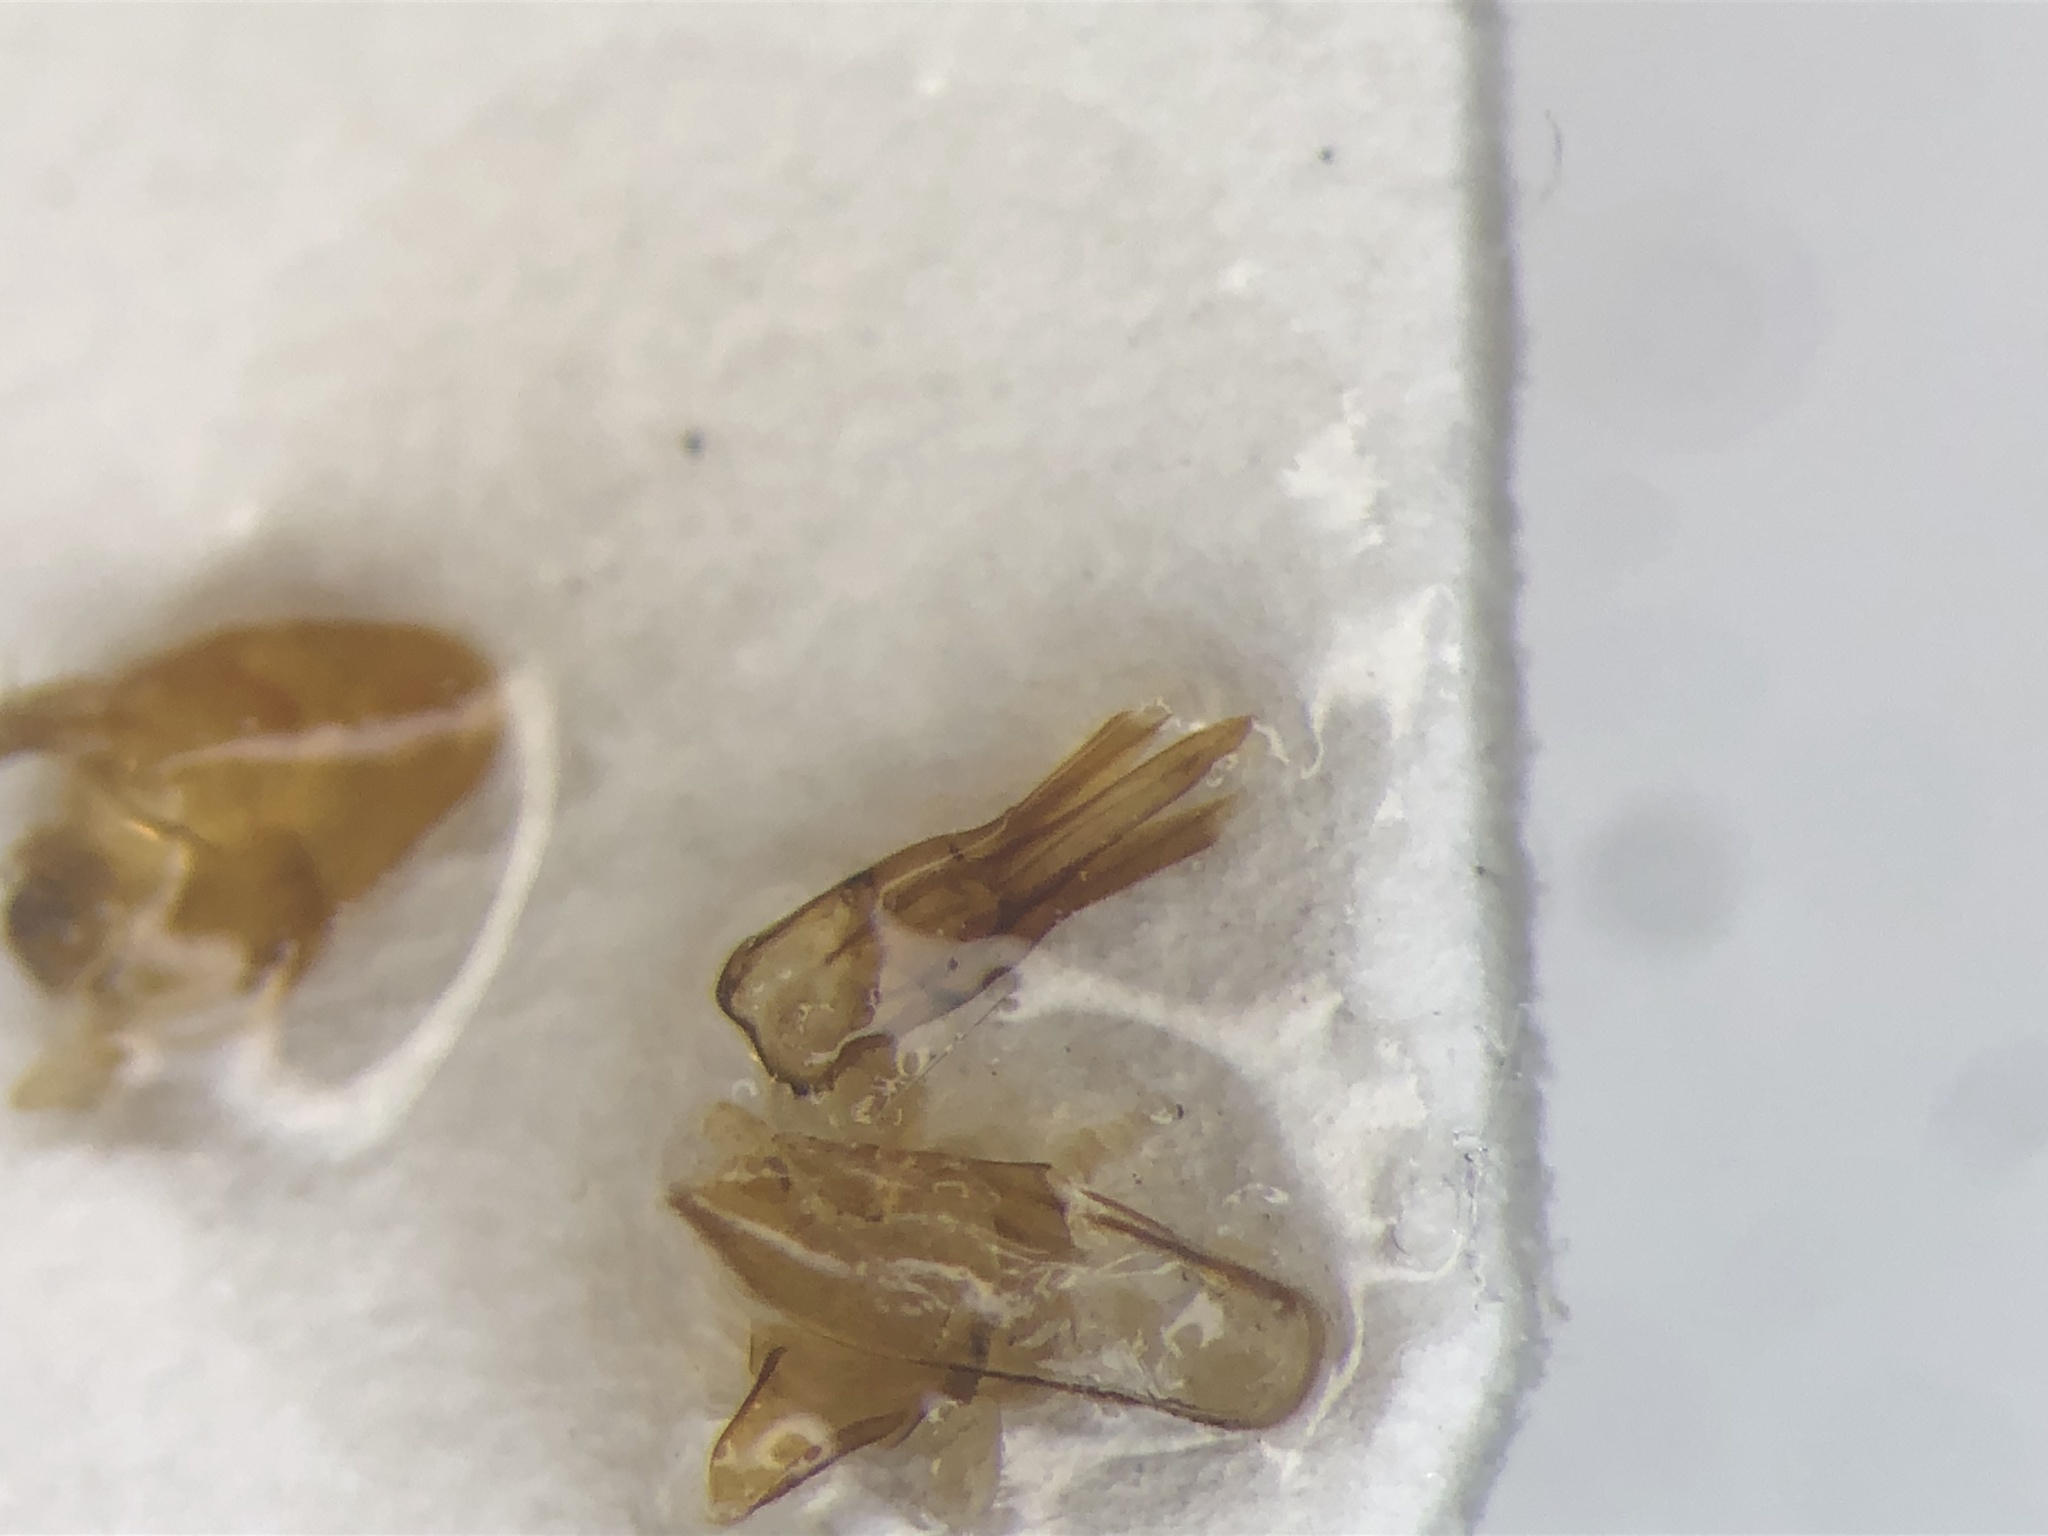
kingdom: Animalia
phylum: Arthropoda
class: Insecta
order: Coleoptera
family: Elateridae
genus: Melanotus
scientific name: Melanotus morosus
